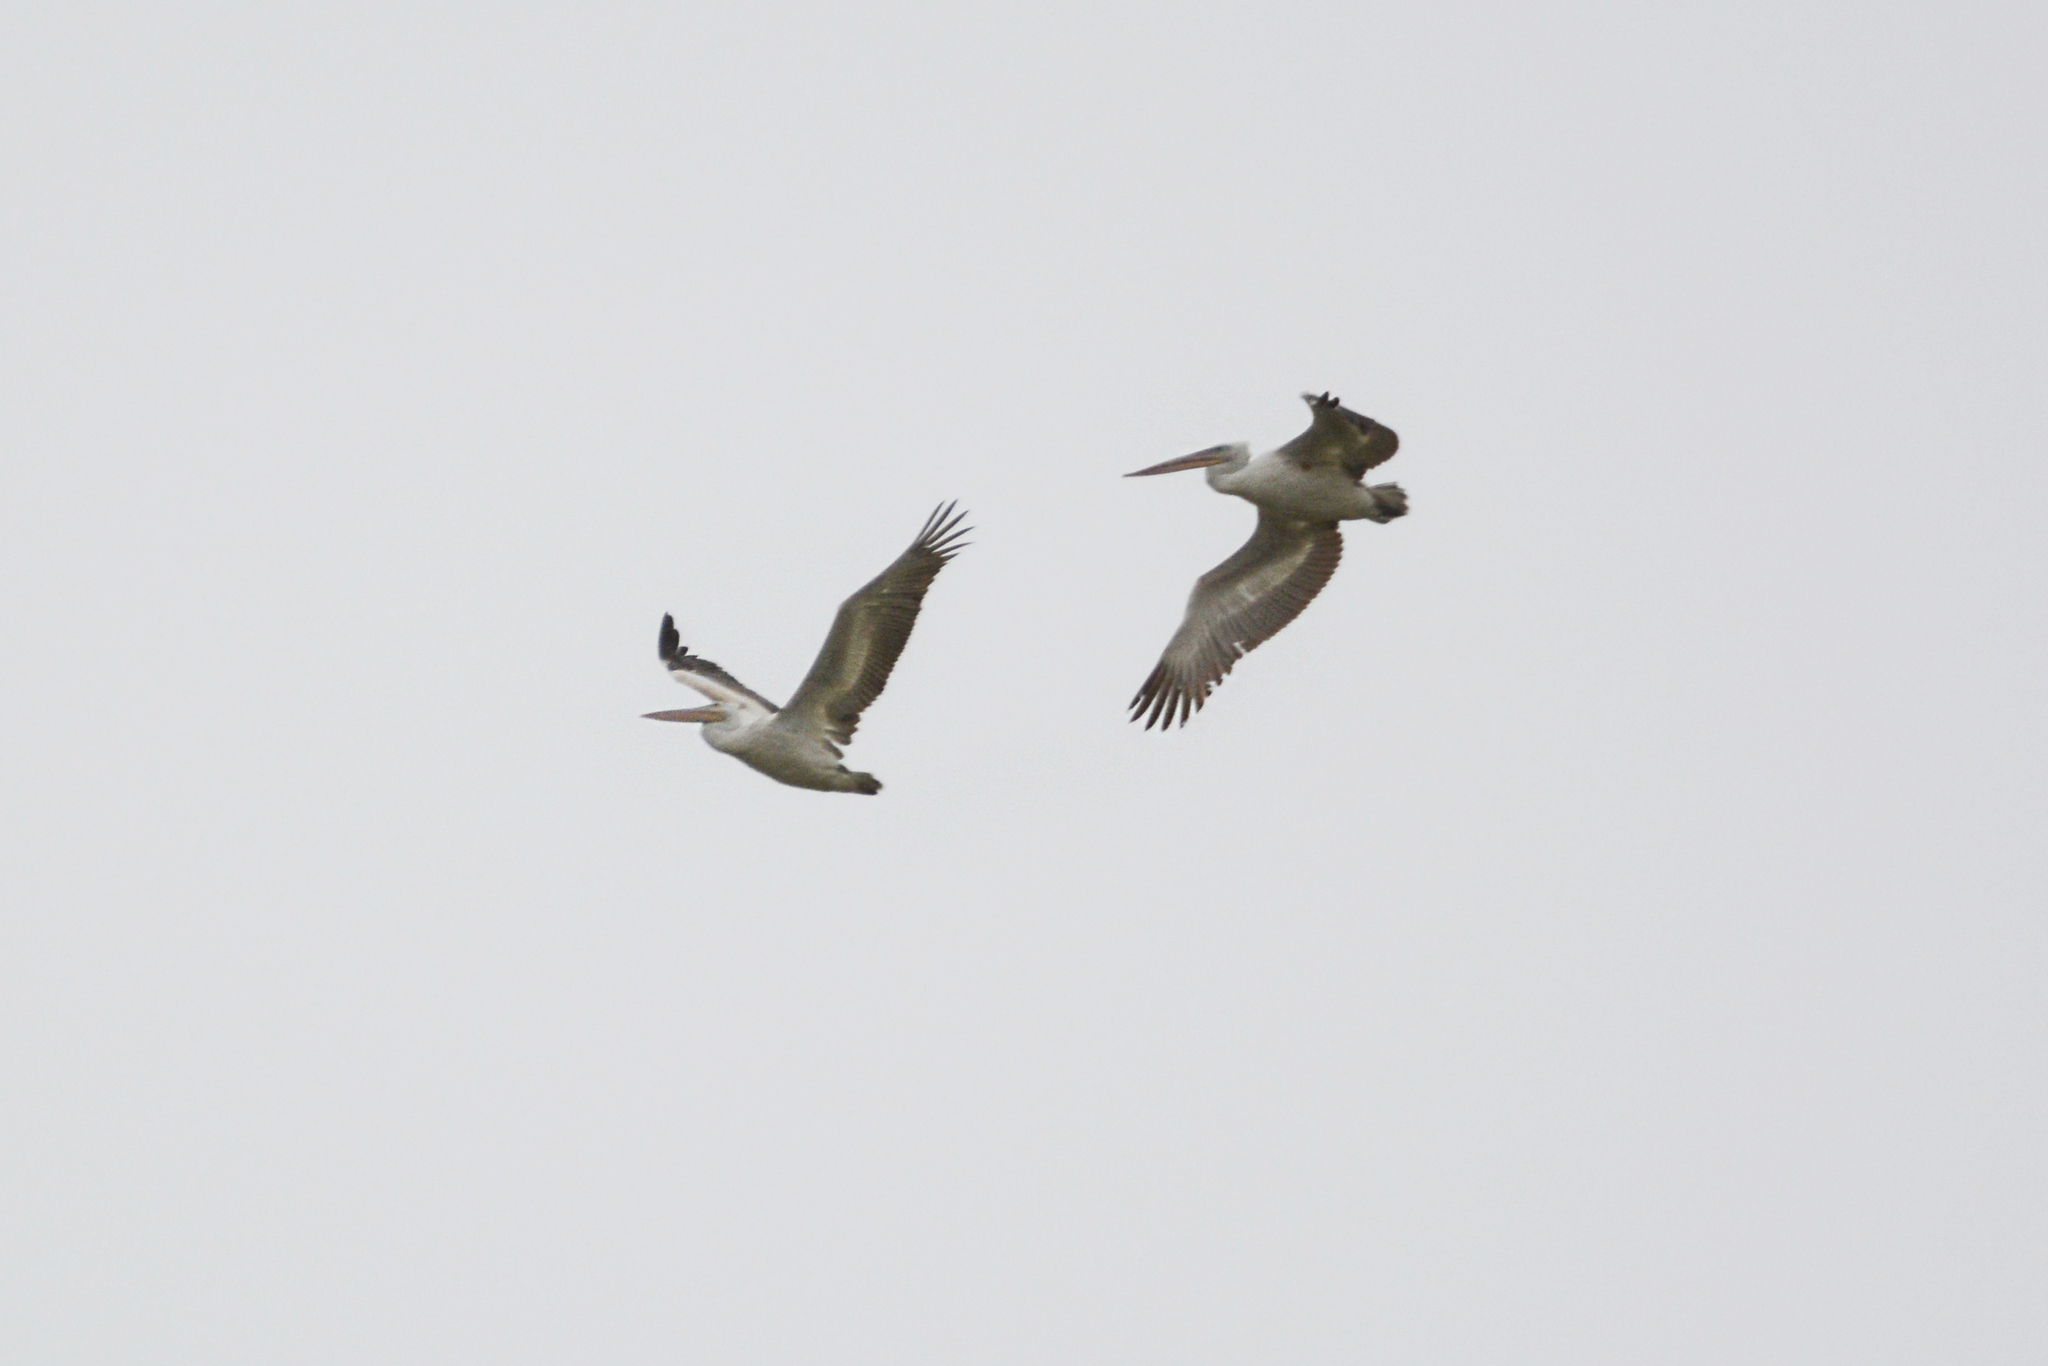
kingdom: Animalia
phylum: Chordata
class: Aves
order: Pelecaniformes
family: Pelecanidae
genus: Pelecanus
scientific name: Pelecanus crispus
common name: Dalmatian pelican
